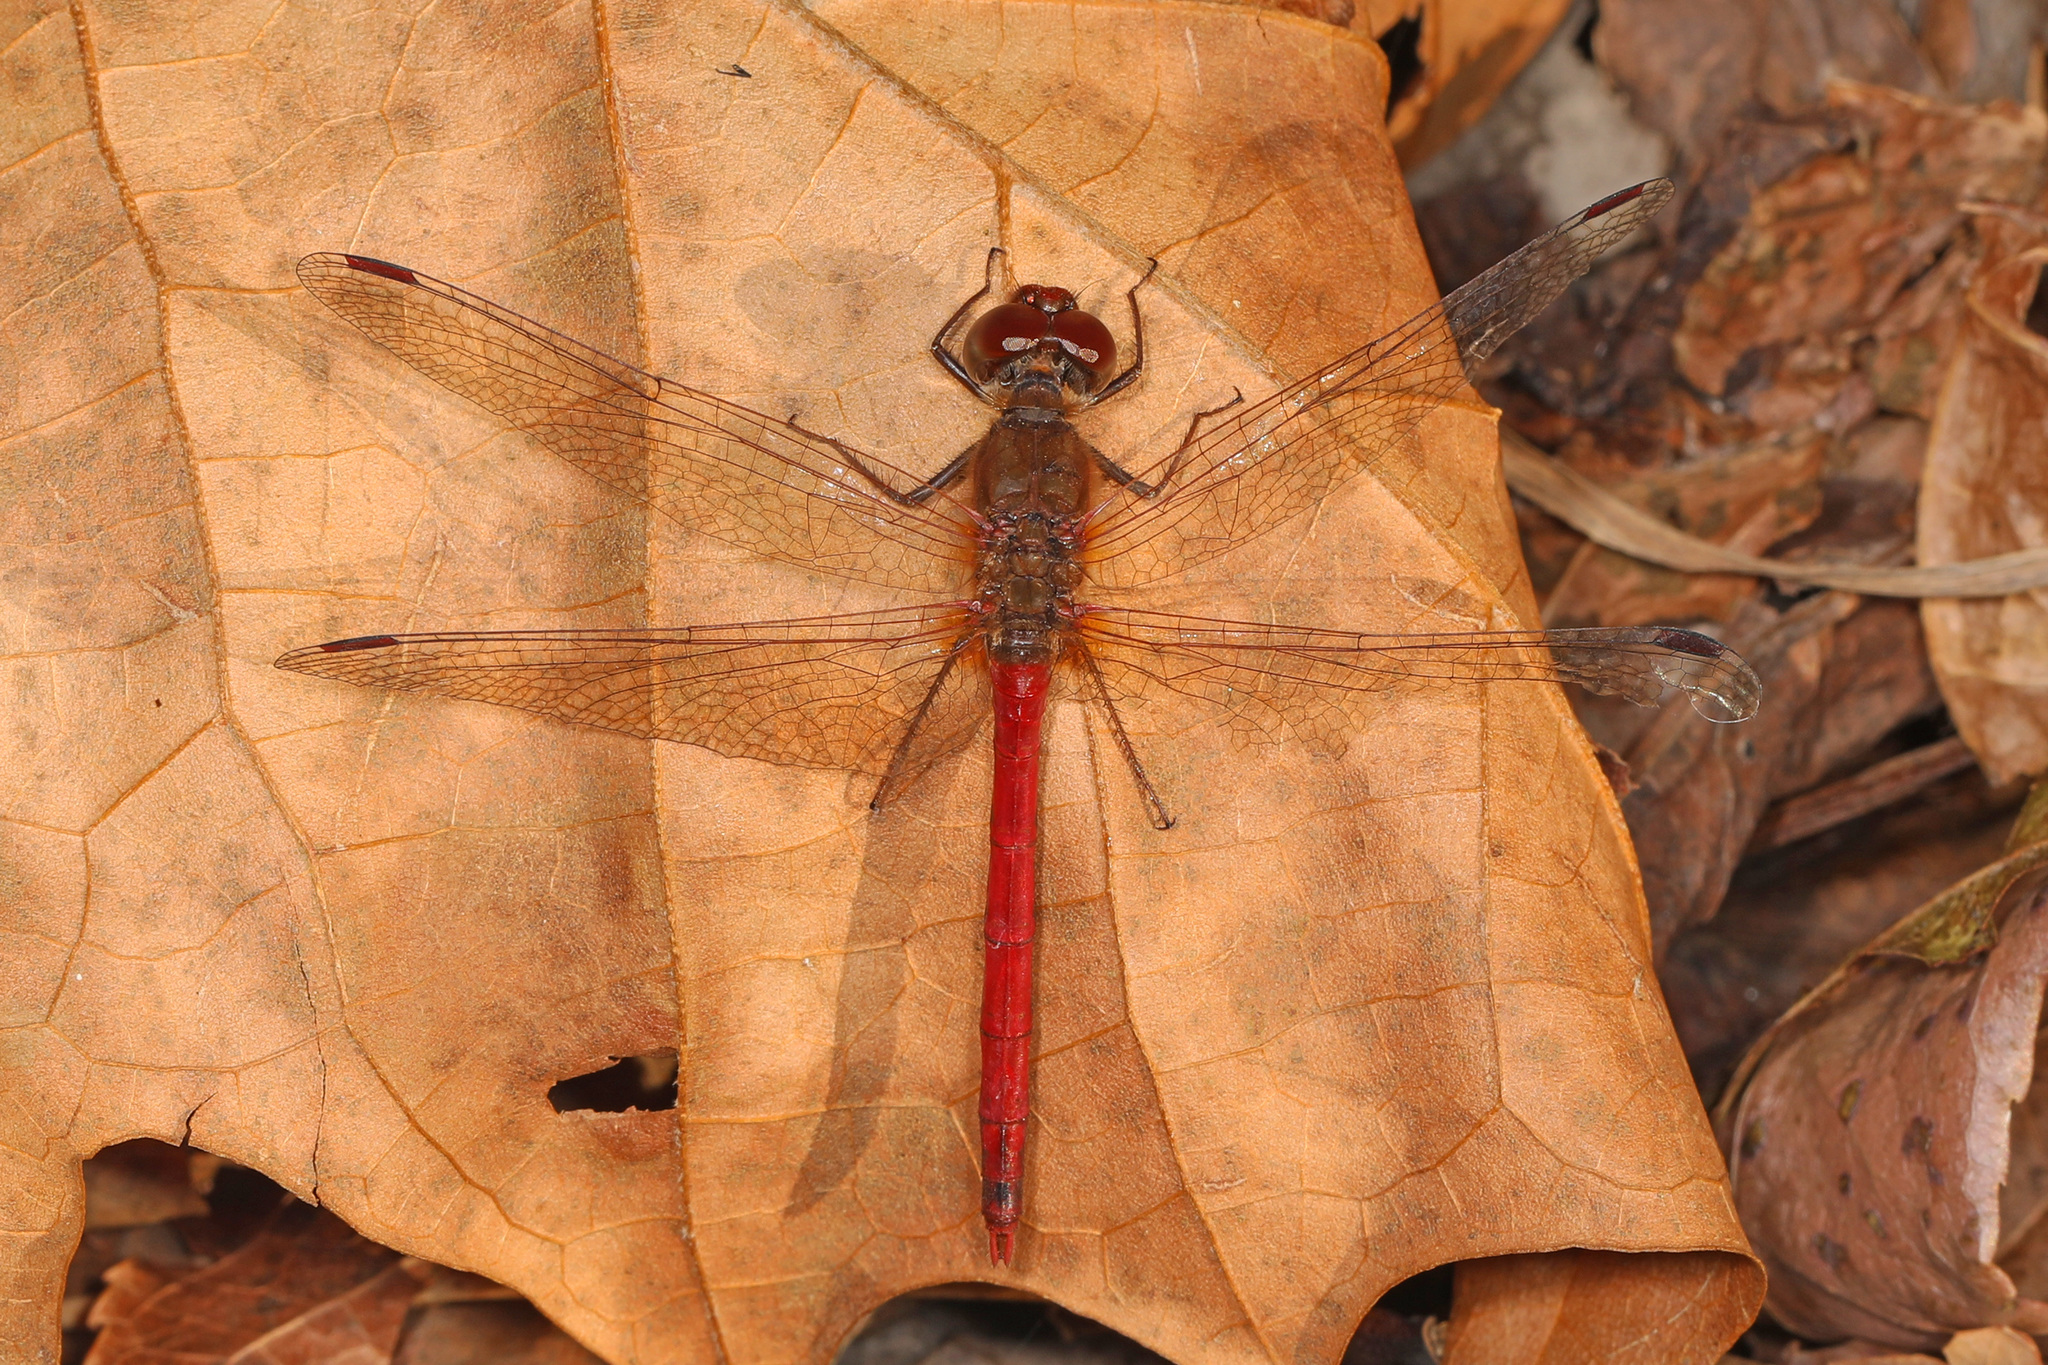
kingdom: Animalia
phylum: Arthropoda
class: Insecta
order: Odonata
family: Libellulidae
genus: Sympetrum
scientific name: Sympetrum vicinum
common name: Autumn meadowhawk
